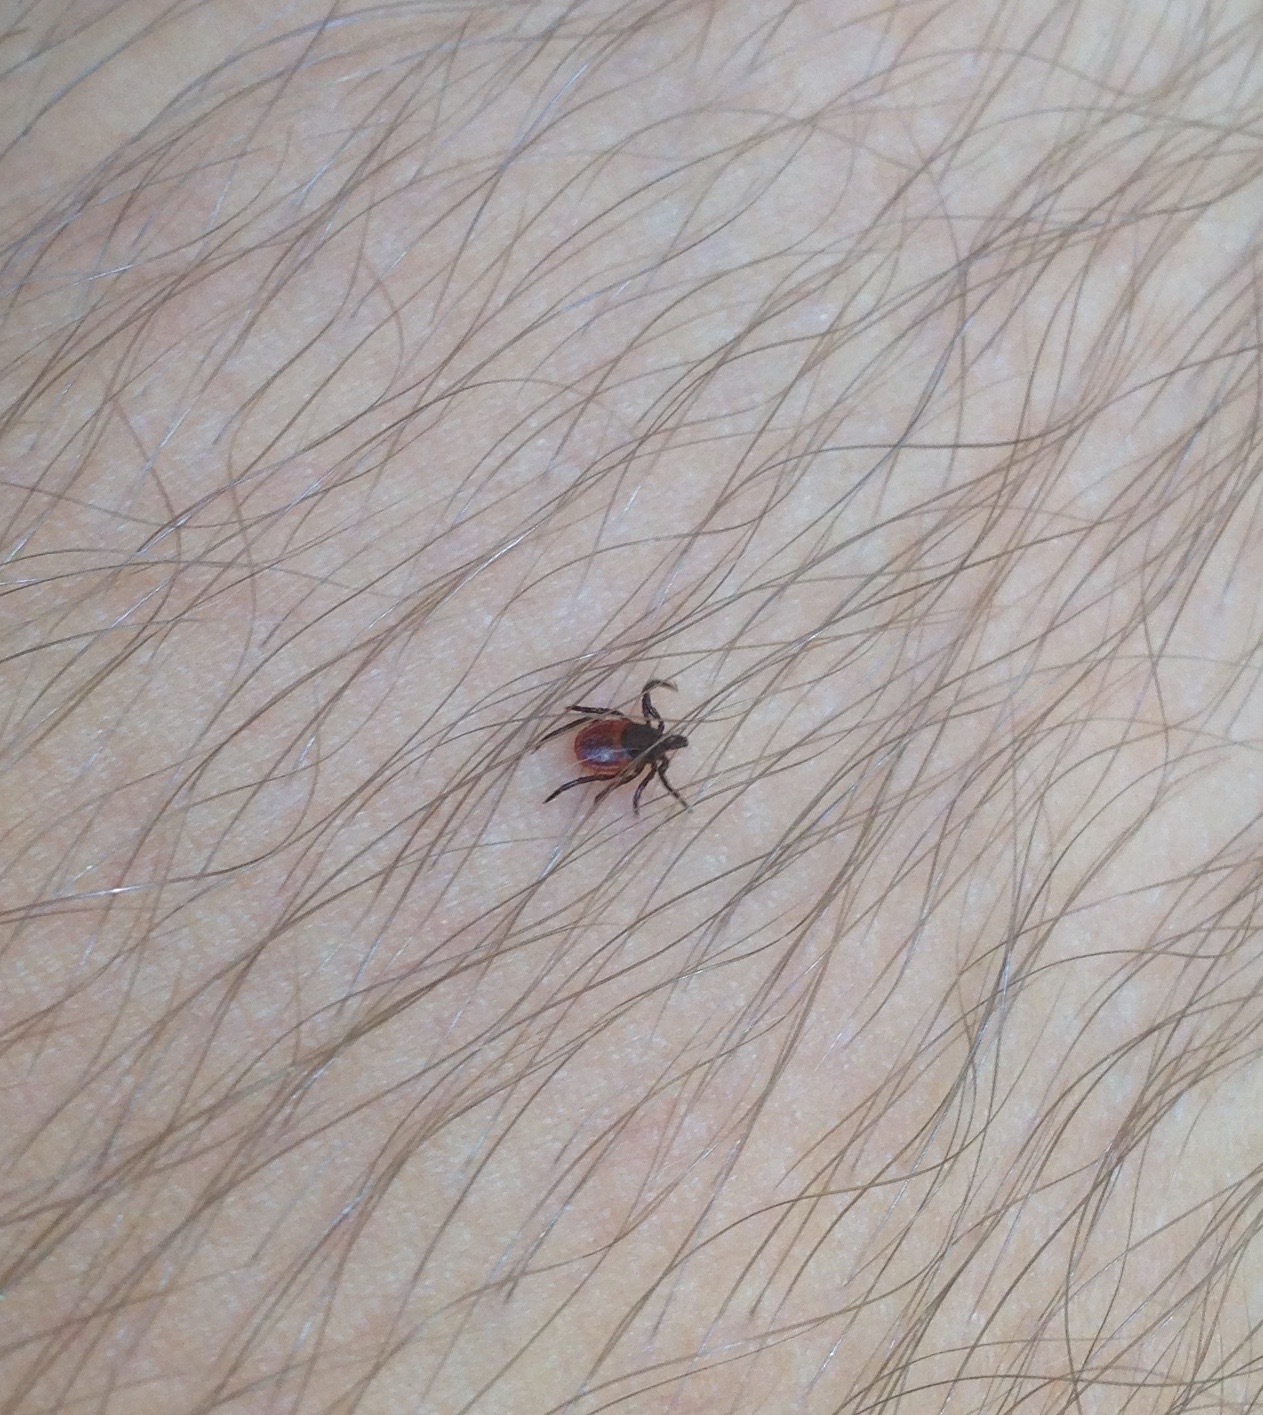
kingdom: Animalia
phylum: Arthropoda
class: Arachnida
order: Ixodida
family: Ixodidae
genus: Ixodes
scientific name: Ixodes pacificus
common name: California black-legged tick
